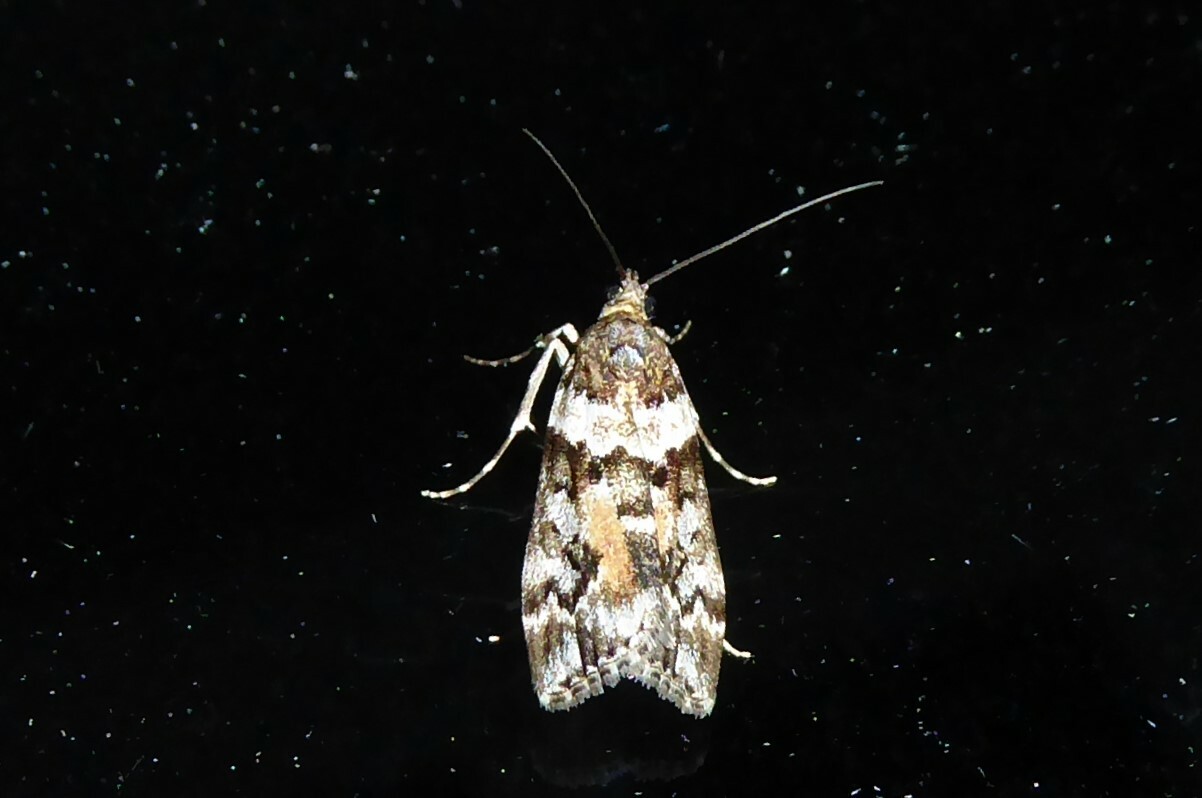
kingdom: Animalia
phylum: Arthropoda
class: Insecta
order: Lepidoptera
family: Crambidae
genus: Eudonia
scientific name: Eudonia submarginalis
